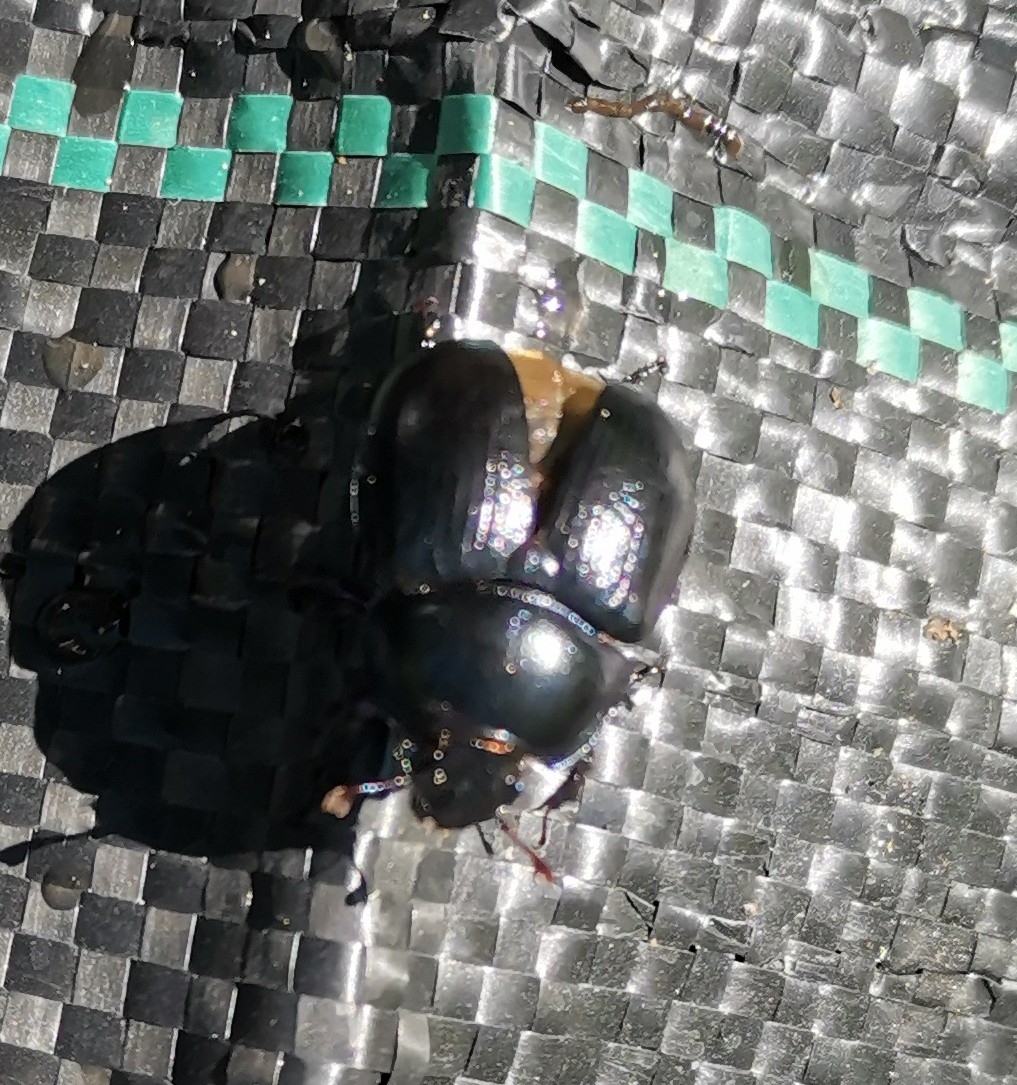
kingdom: Animalia
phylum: Arthropoda
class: Insecta
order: Coleoptera
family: Geotrupidae
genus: Anoplotrupes
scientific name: Anoplotrupes stercorosus
